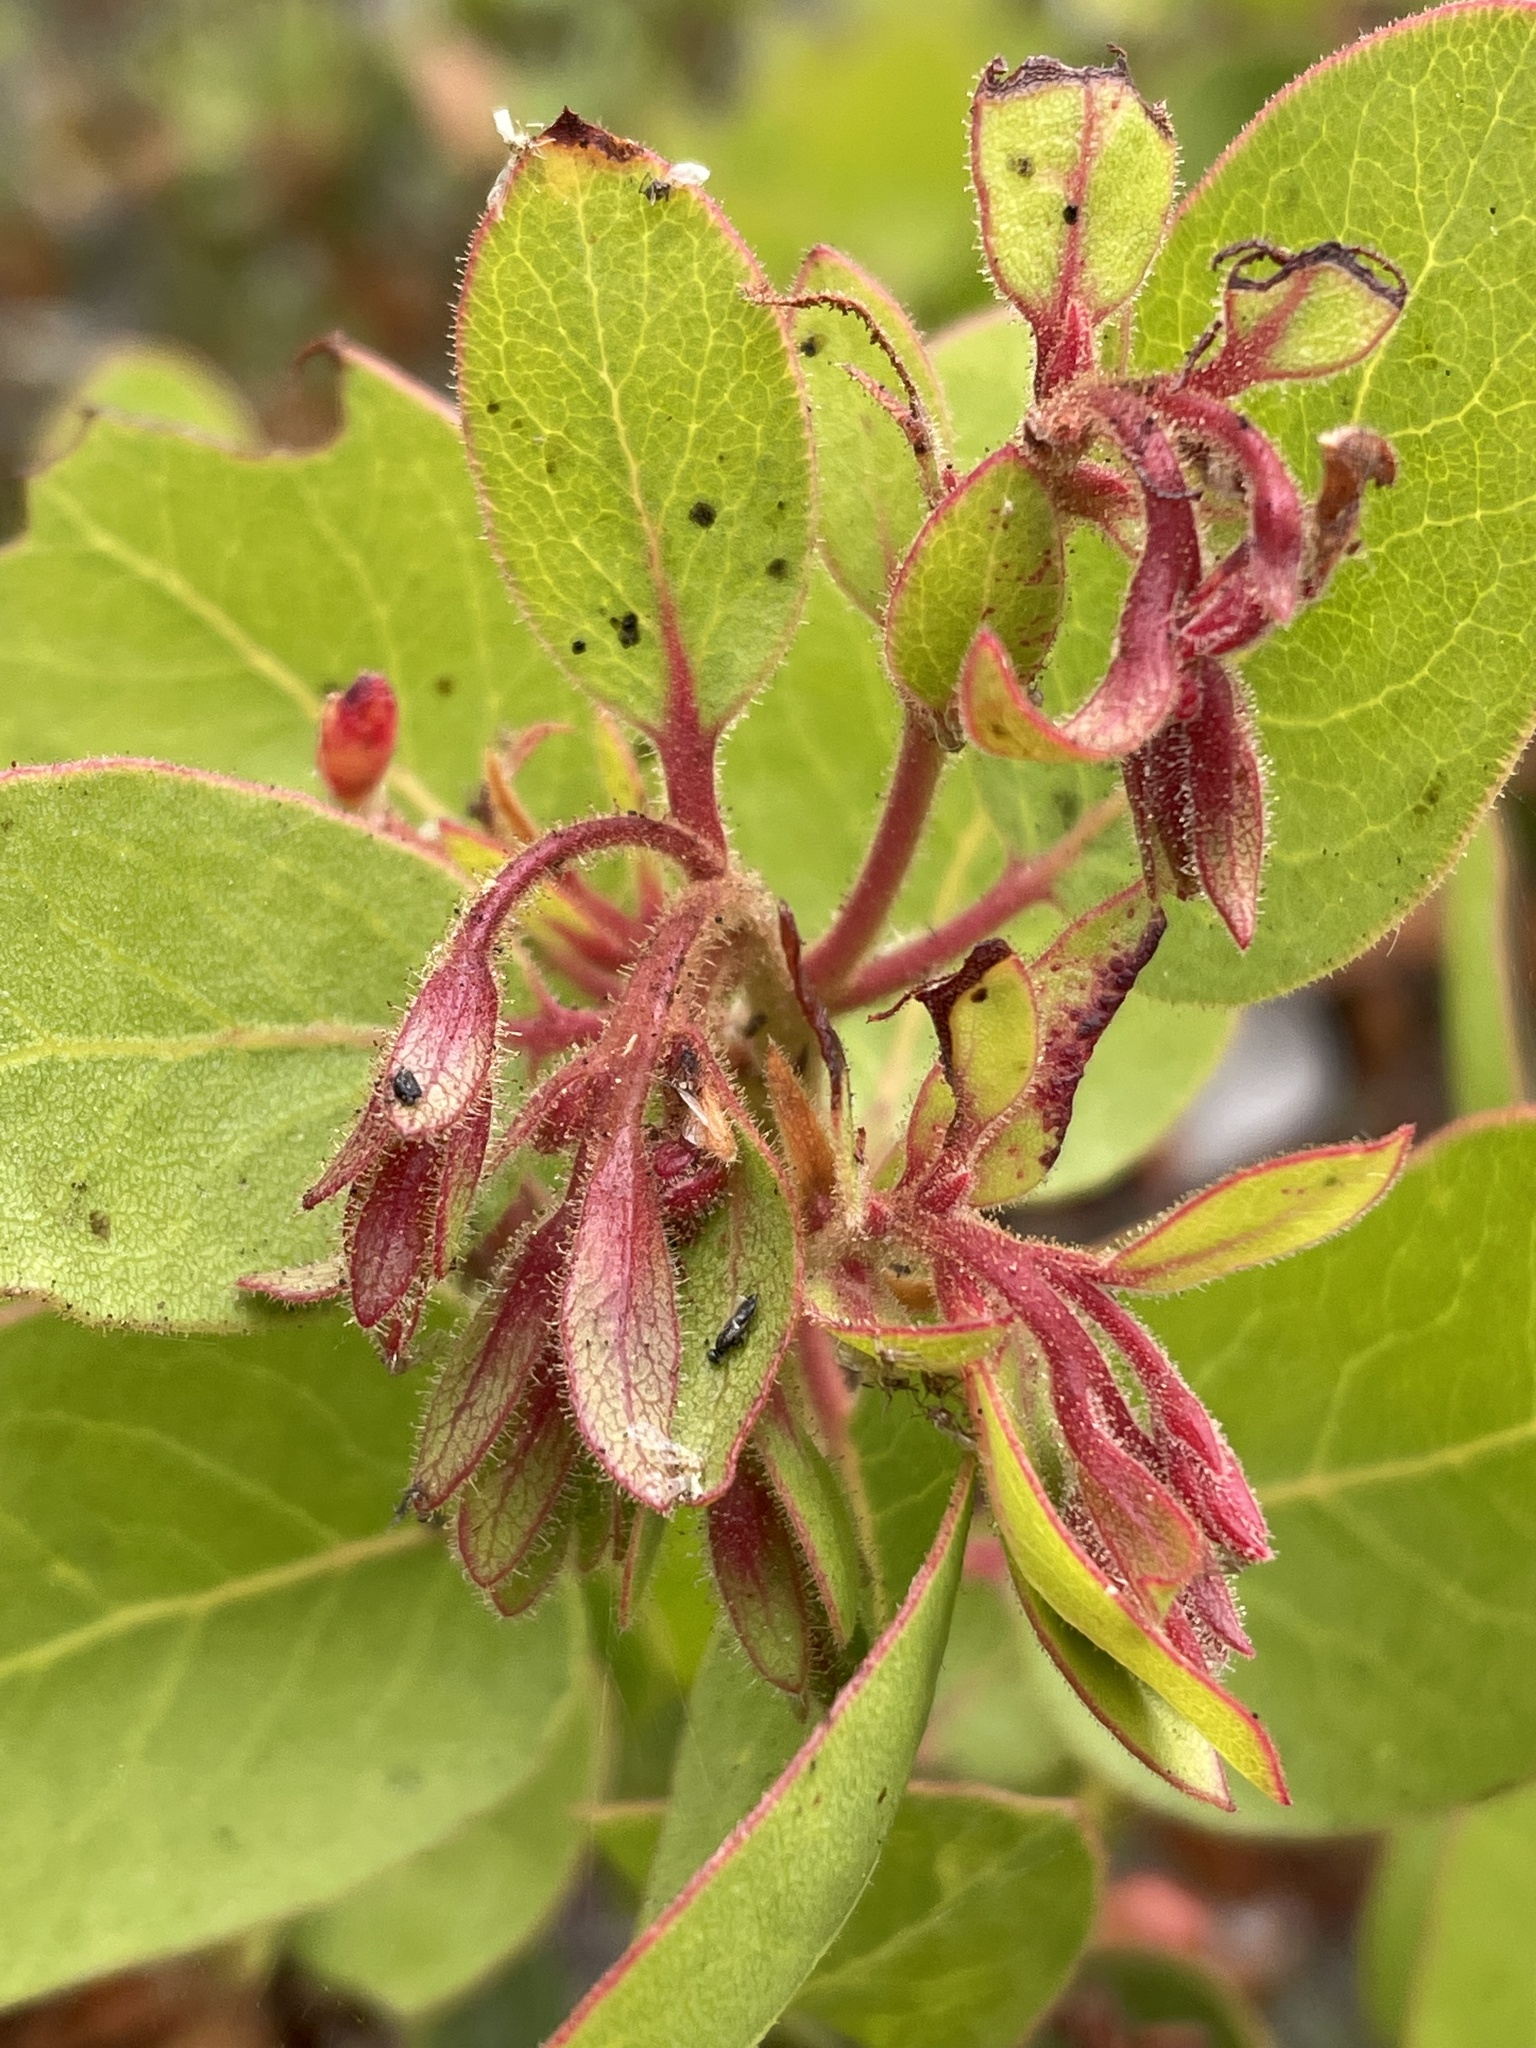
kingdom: Plantae
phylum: Tracheophyta
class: Magnoliopsida
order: Ericales
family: Ericaceae
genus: Arctostaphylos
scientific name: Arctostaphylos montereyensis
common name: Monterey manzanita
